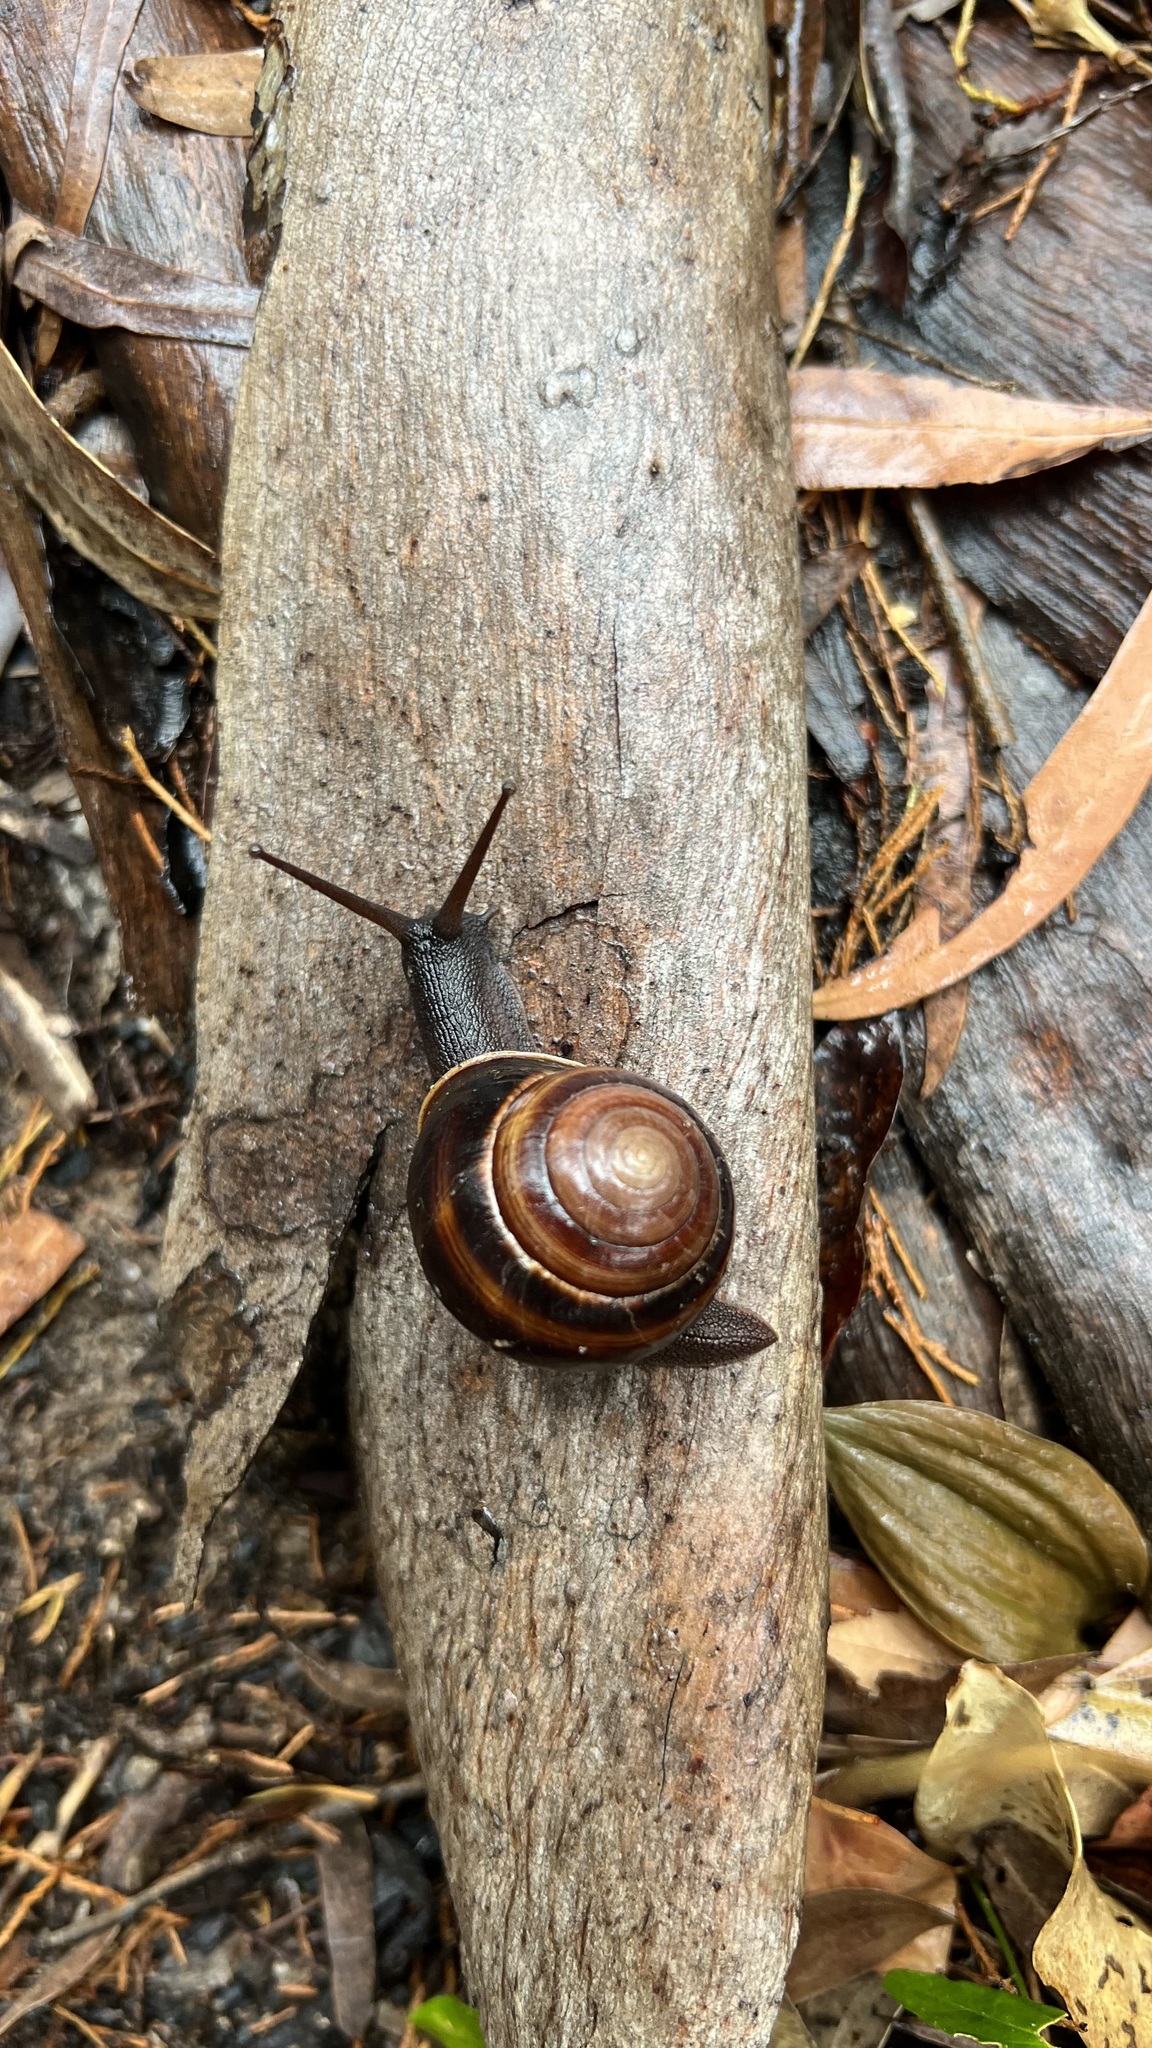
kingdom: Animalia
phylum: Mollusca
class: Gastropoda
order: Stylommatophora
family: Camaenidae
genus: Figuladra
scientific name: Figuladra
